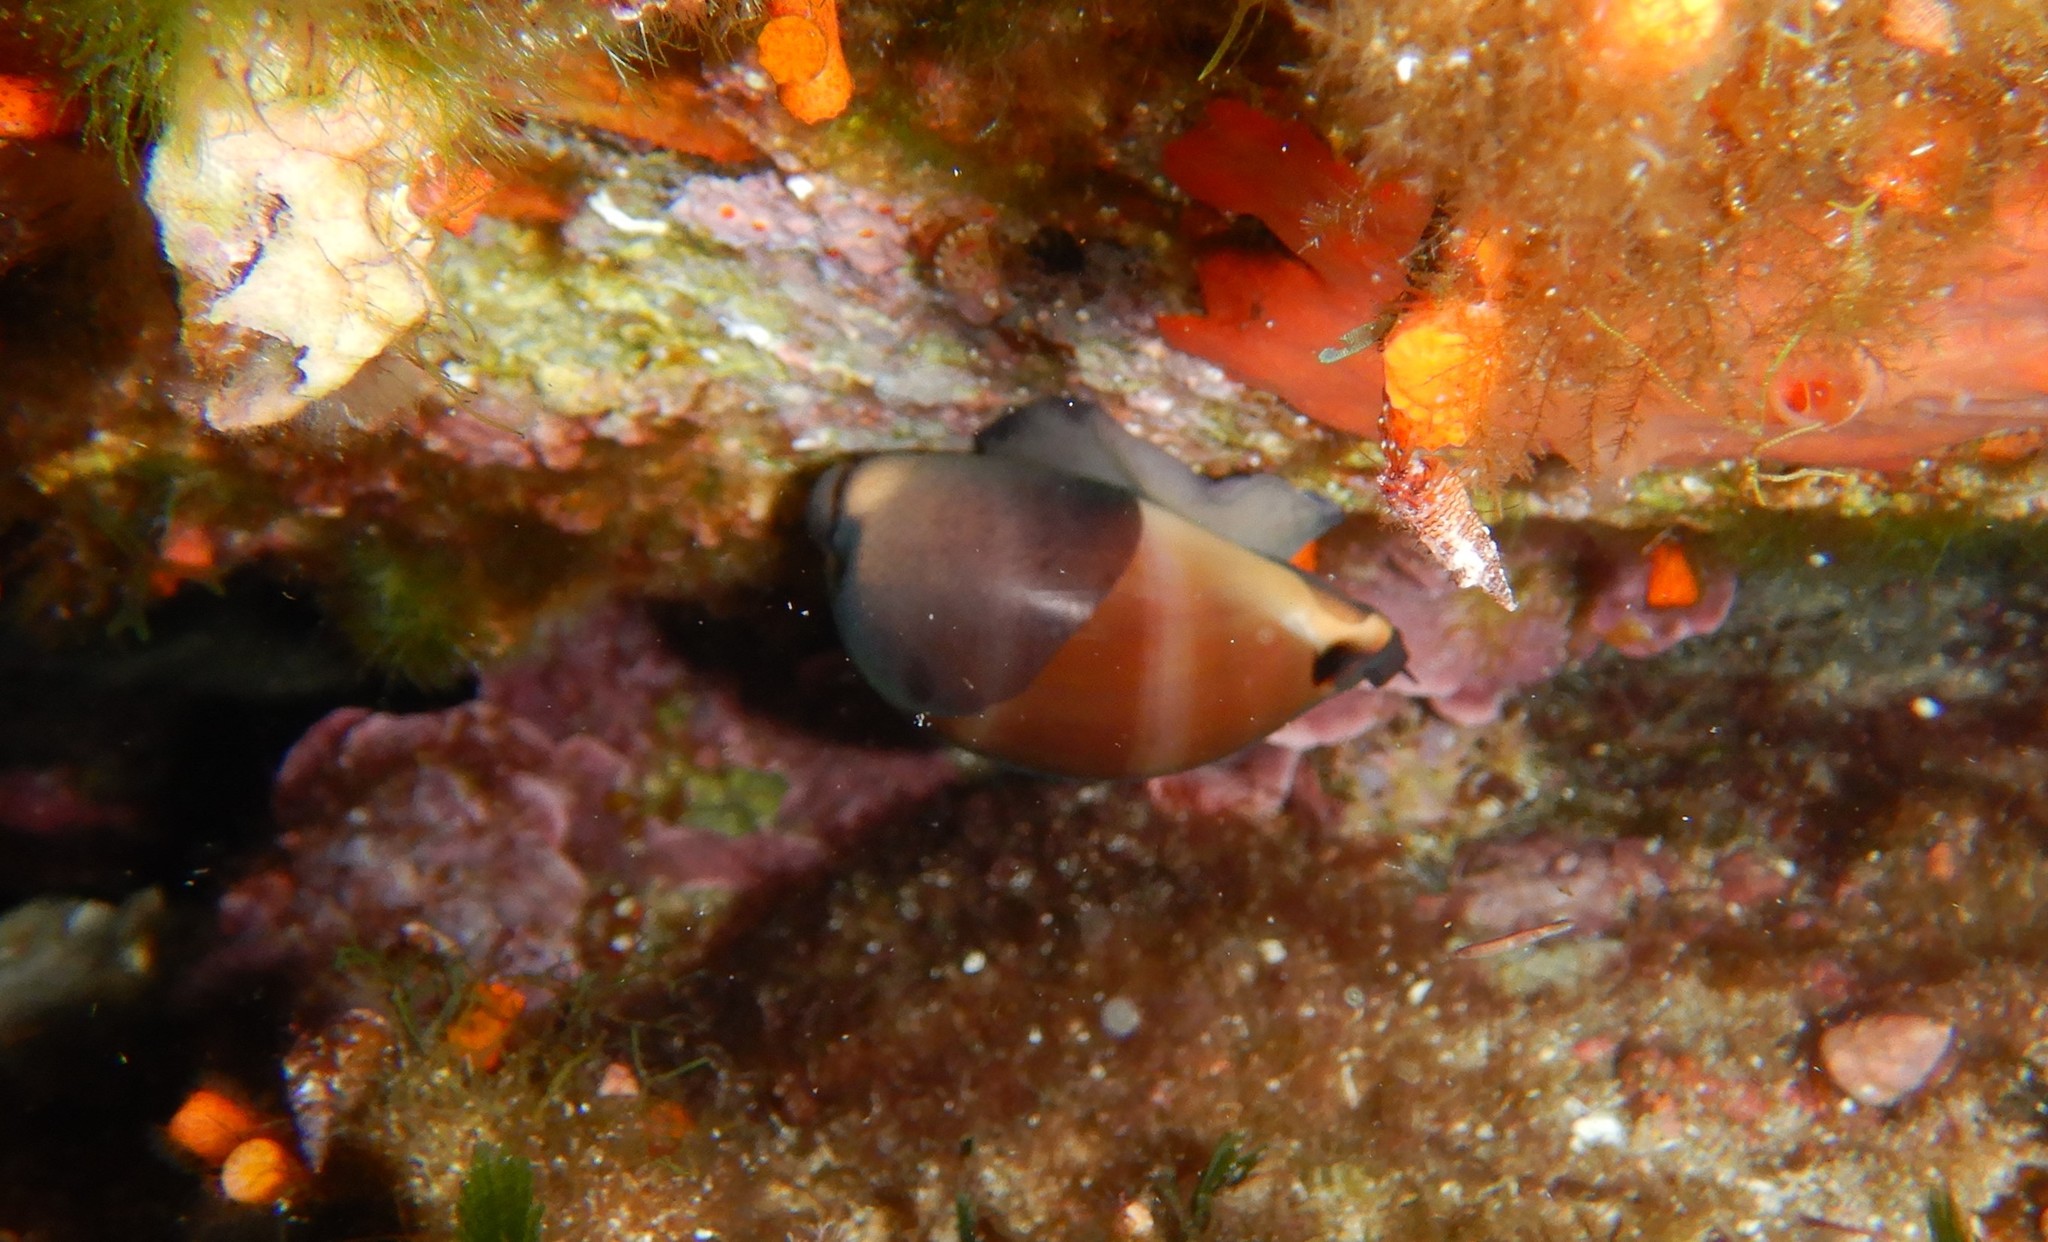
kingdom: Animalia
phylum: Mollusca
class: Gastropoda
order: Littorinimorpha
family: Cypraeidae
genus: Luria
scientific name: Luria lurida
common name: Brown cowry
